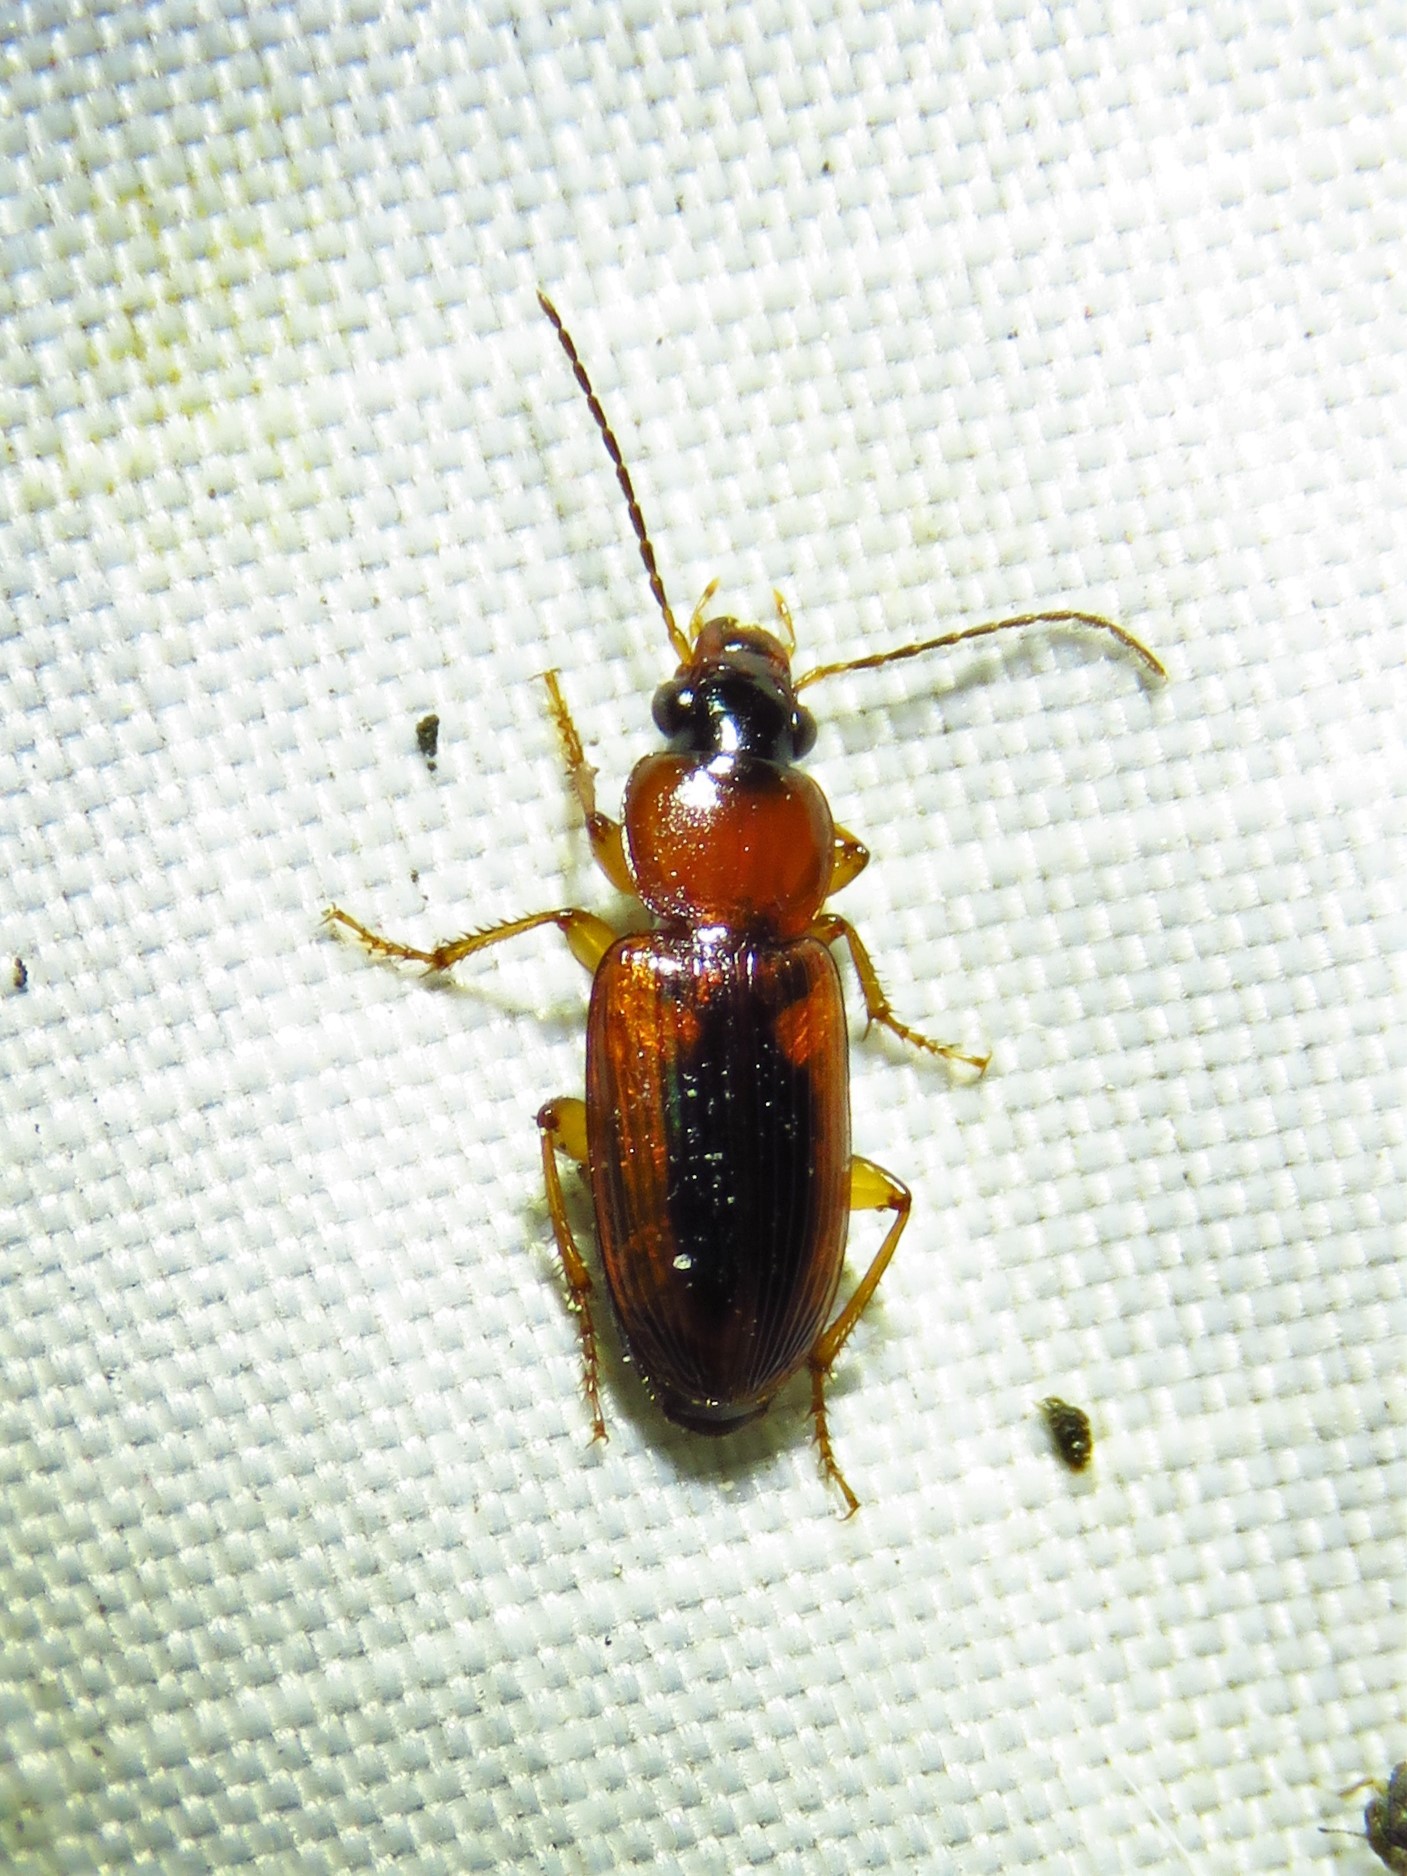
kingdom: Animalia
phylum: Arthropoda
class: Insecta
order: Coleoptera
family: Carabidae
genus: Stenolophus
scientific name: Stenolophus dissimilis
